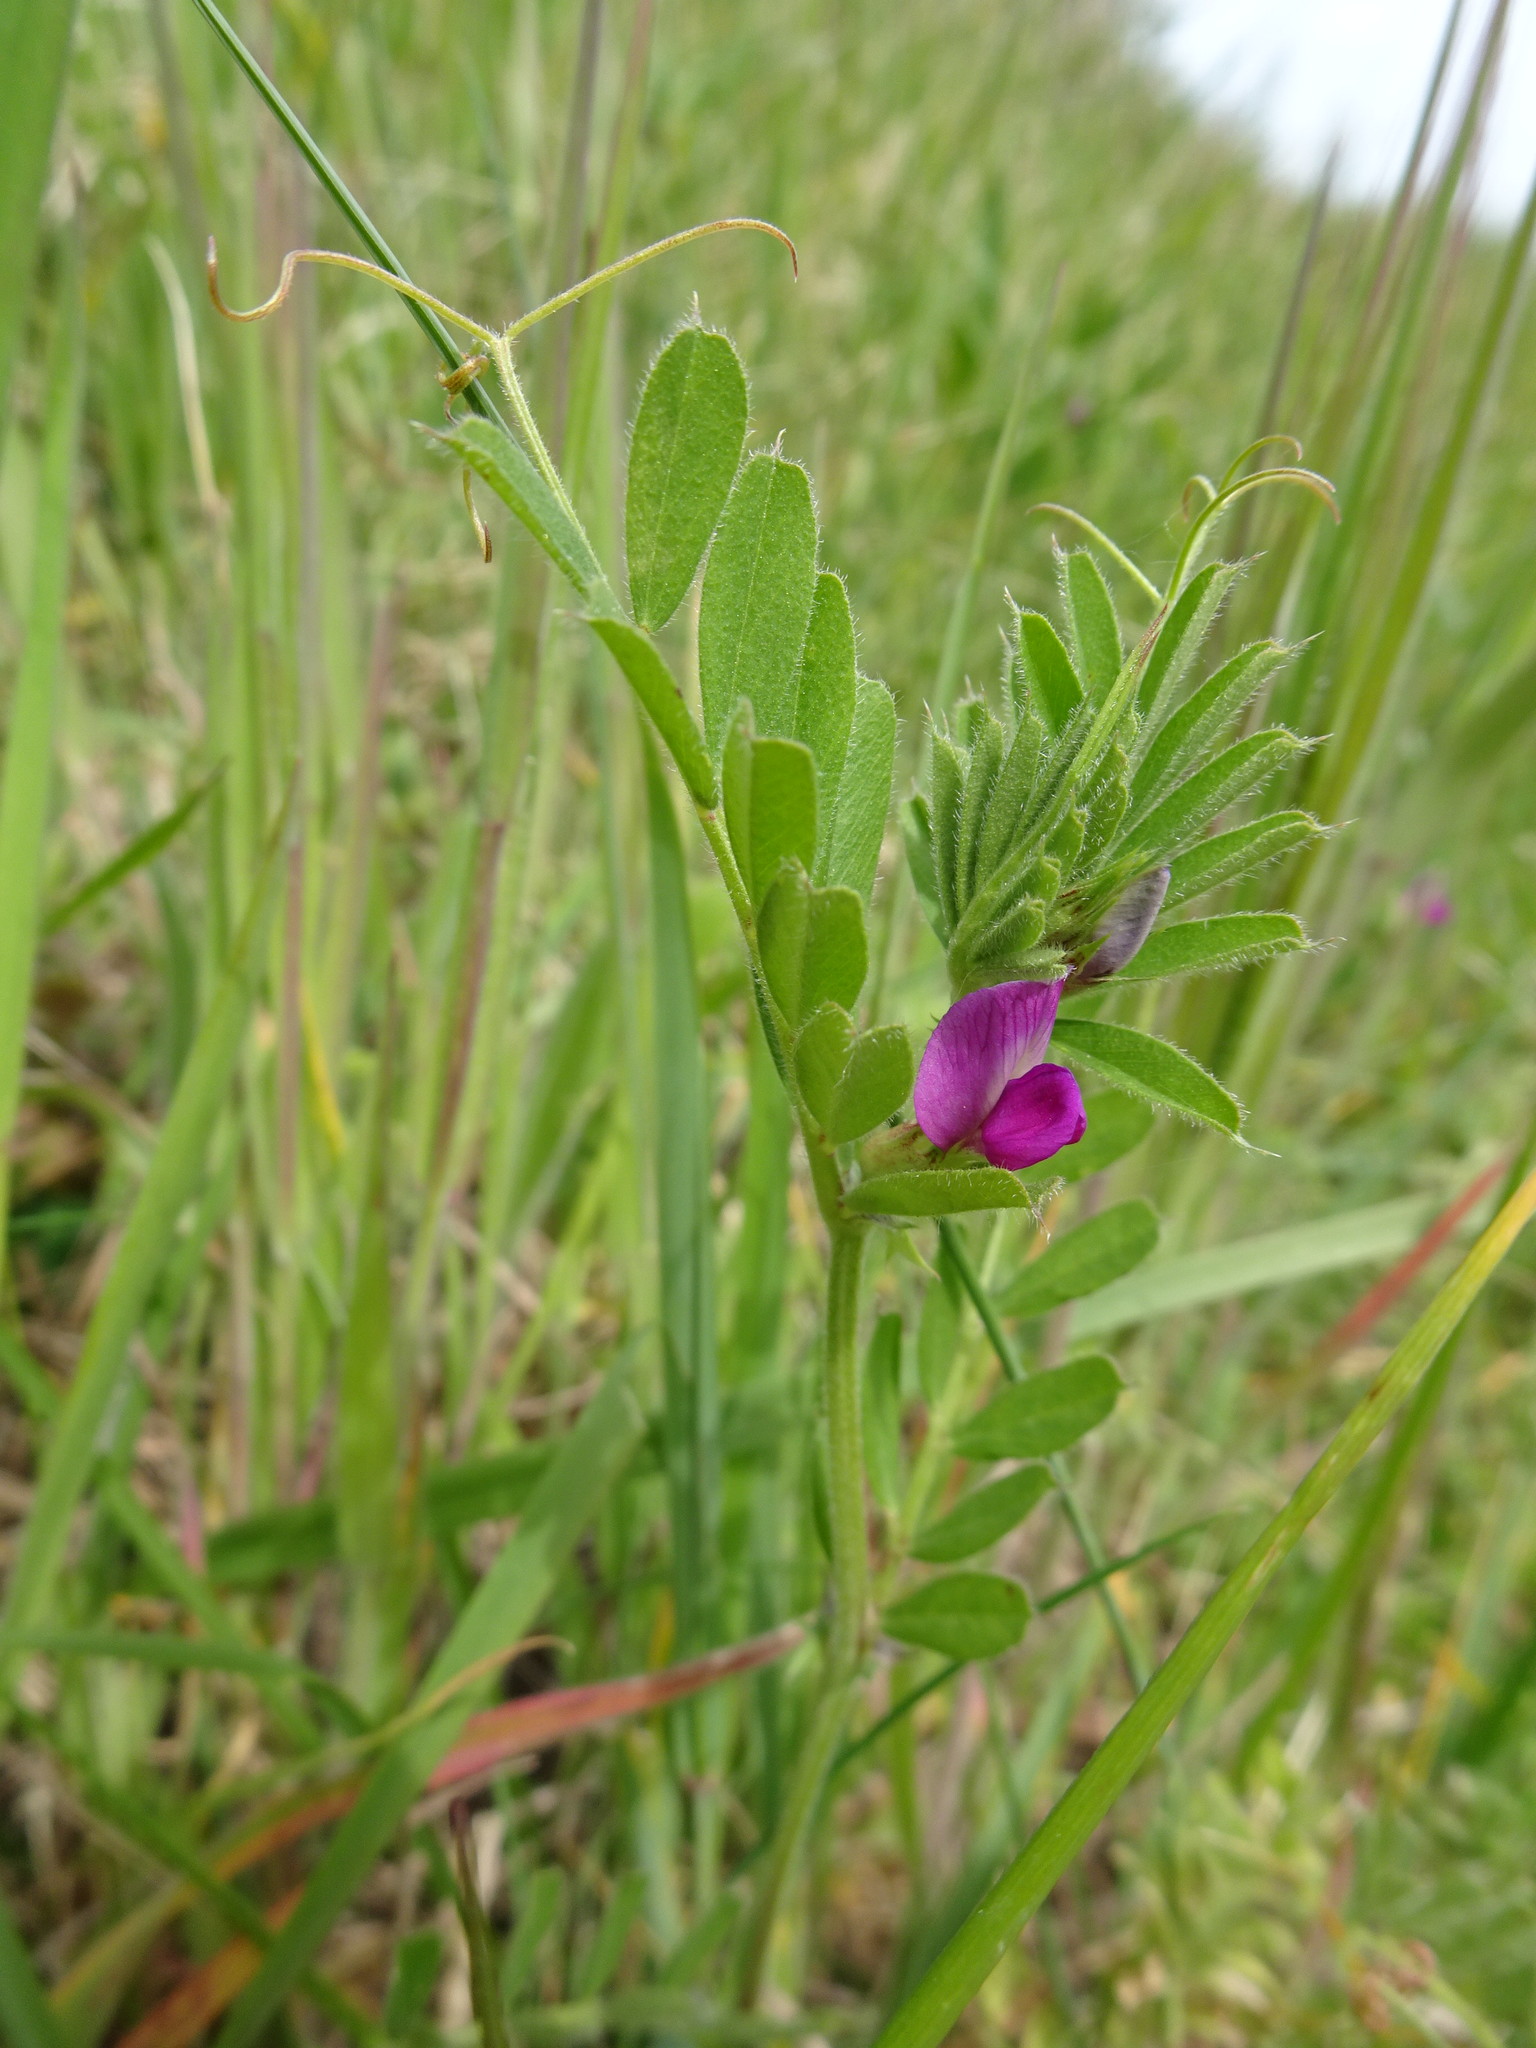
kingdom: Plantae
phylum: Tracheophyta
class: Magnoliopsida
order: Fabales
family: Fabaceae
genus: Vicia
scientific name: Vicia sativa
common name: Garden vetch
